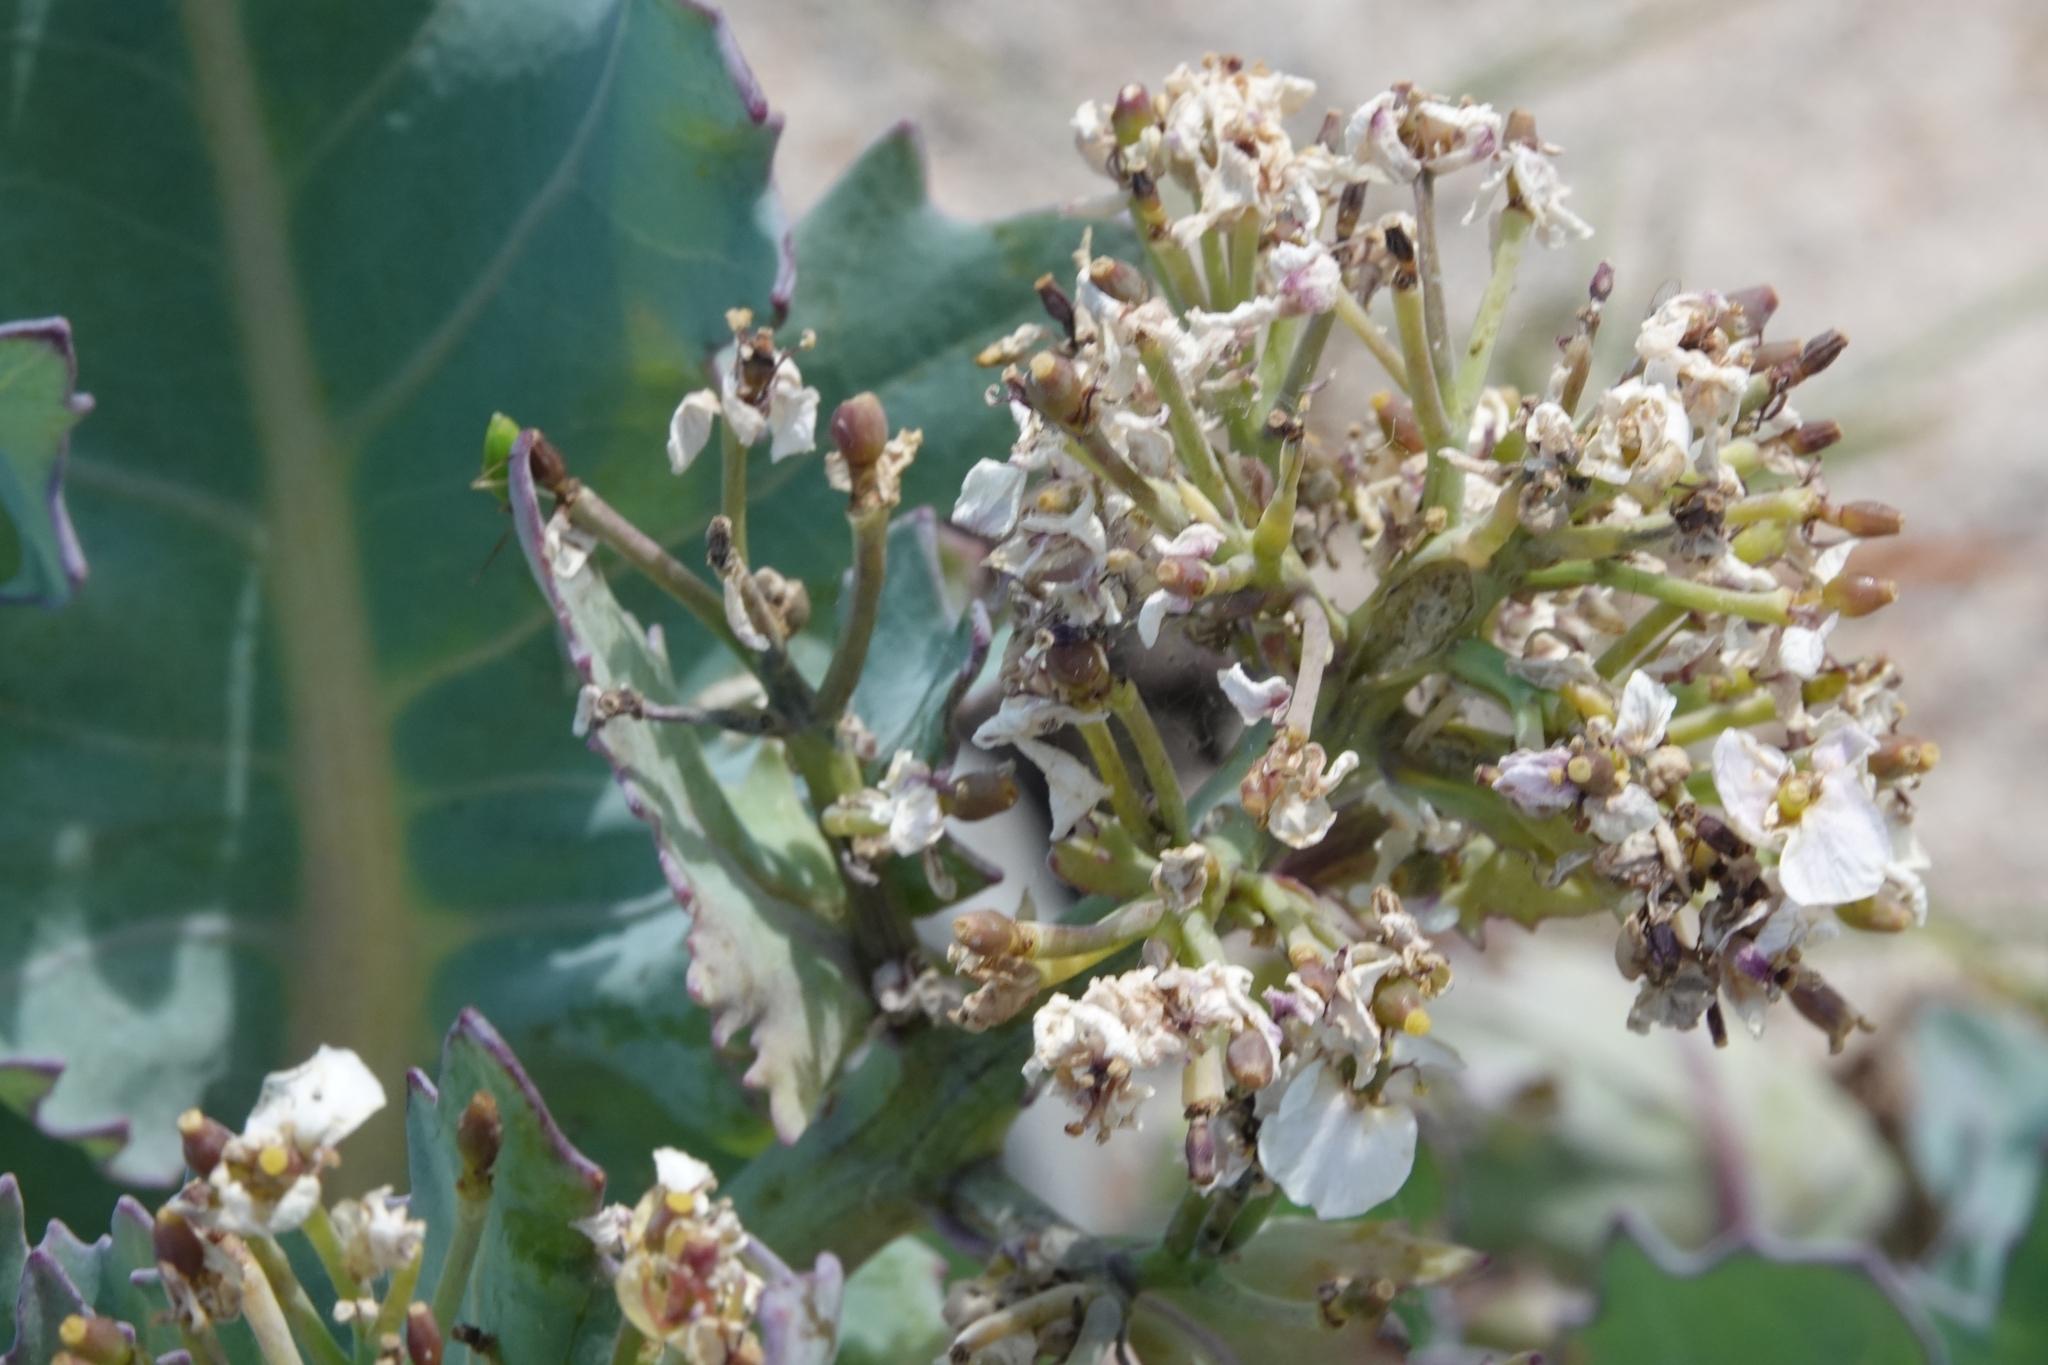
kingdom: Plantae
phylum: Tracheophyta
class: Magnoliopsida
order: Brassicales
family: Brassicaceae
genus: Crambe
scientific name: Crambe maritima
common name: Sea-kale
